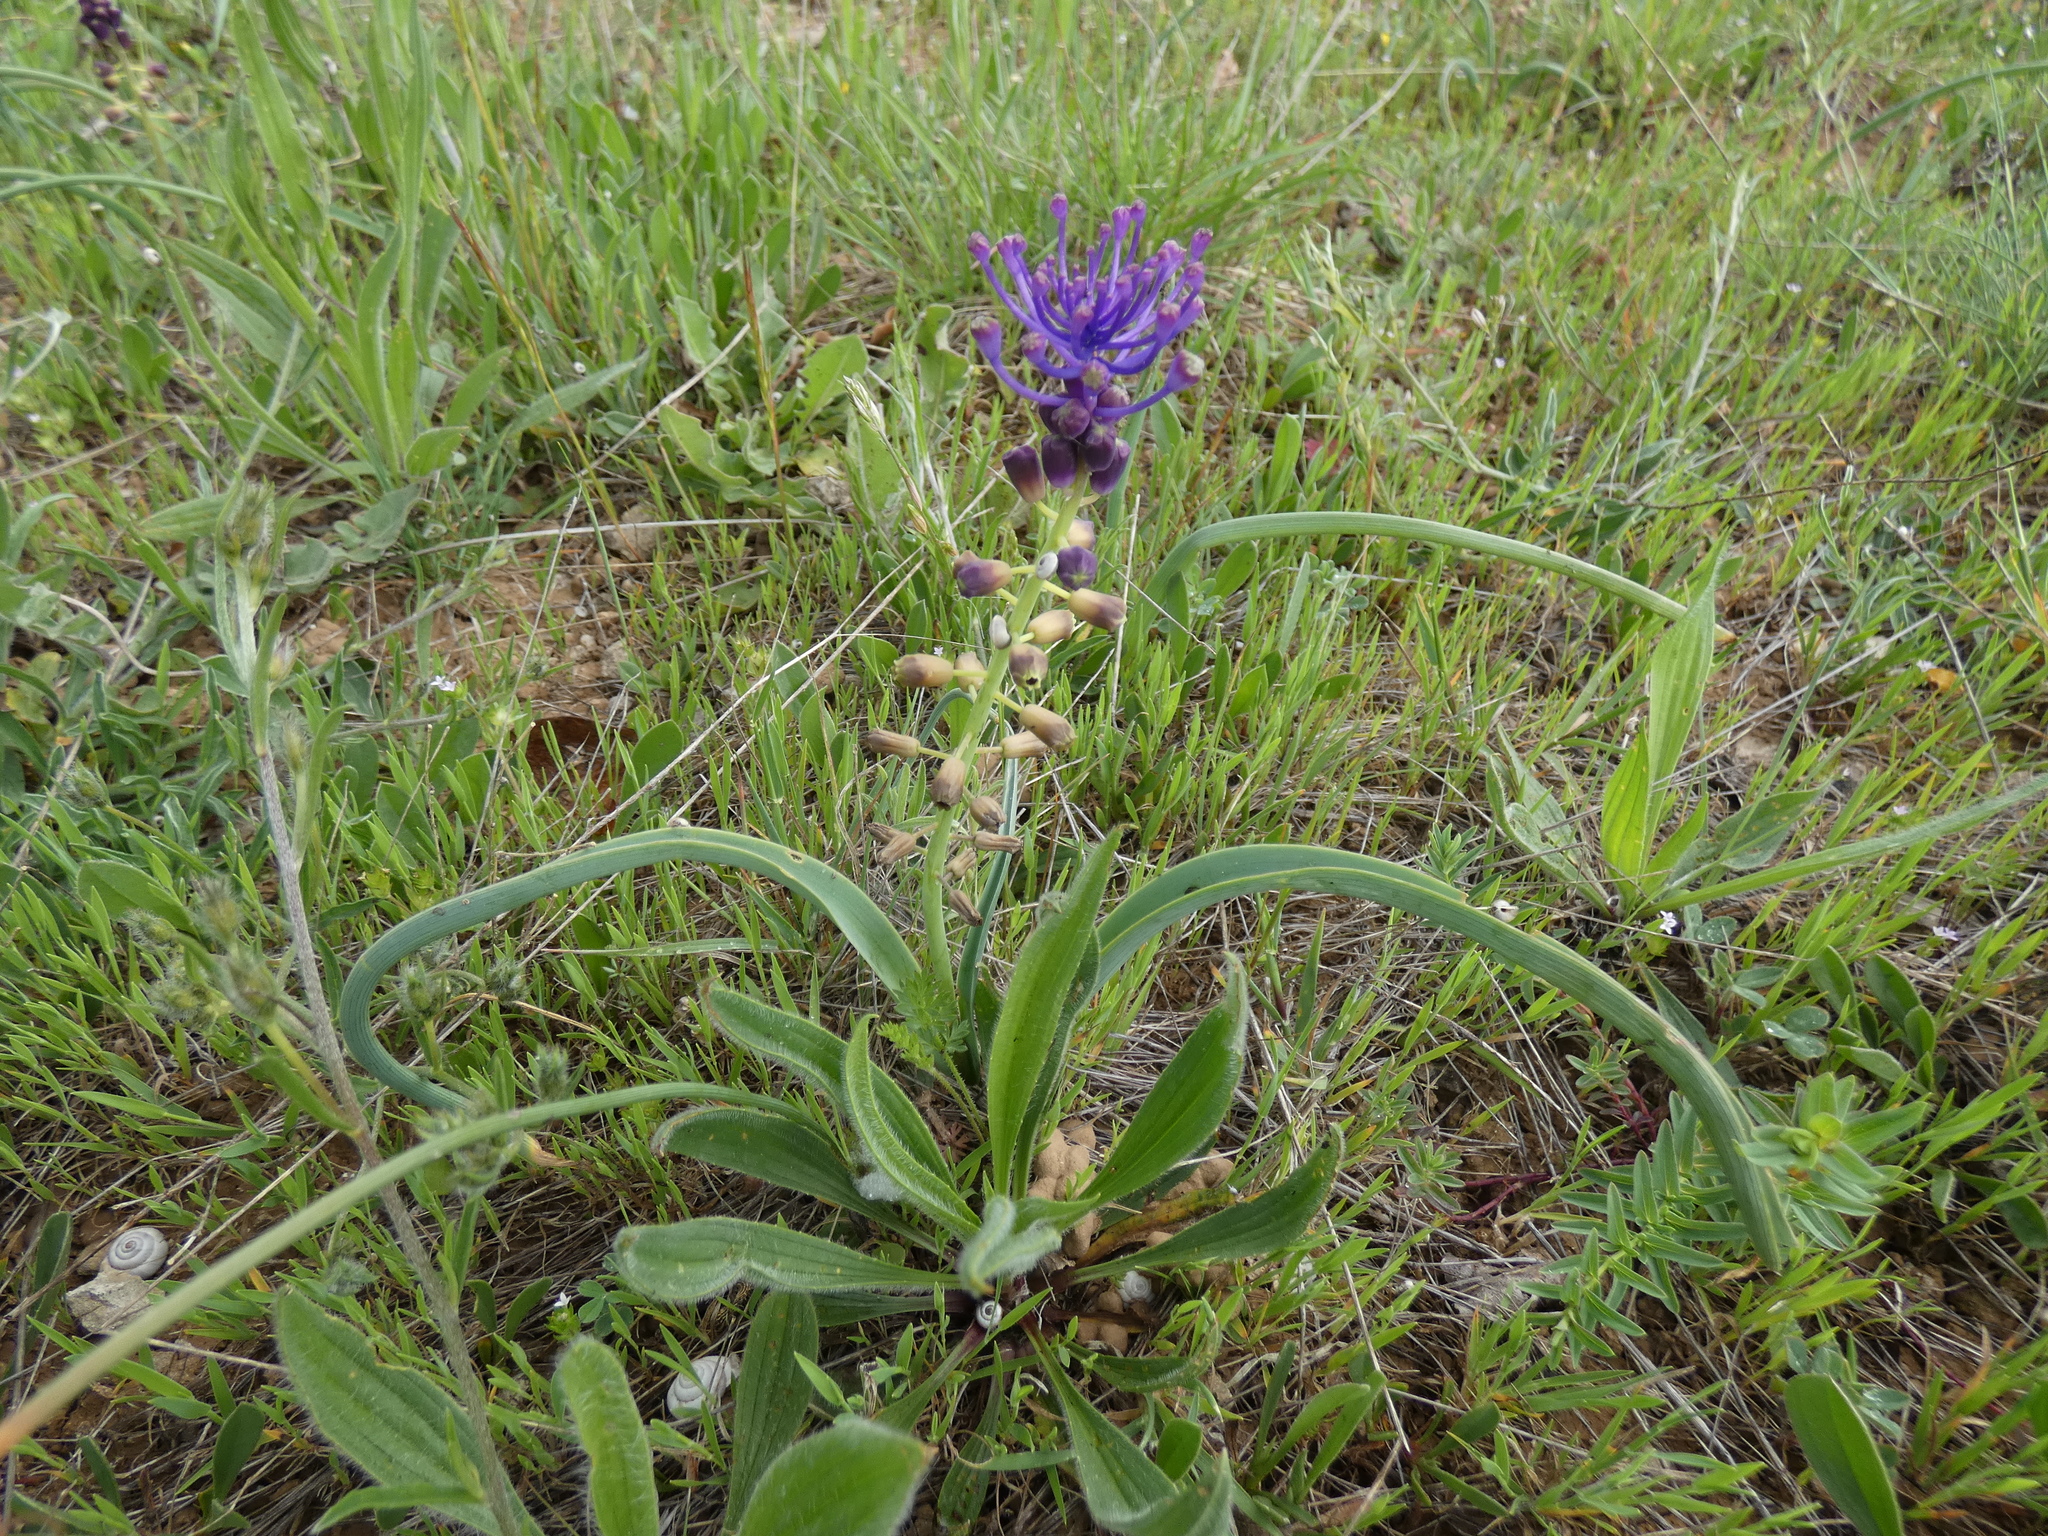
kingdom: Plantae
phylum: Tracheophyta
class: Liliopsida
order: Asparagales
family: Asparagaceae
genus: Muscari
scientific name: Muscari comosum
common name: Tassel hyacinth
